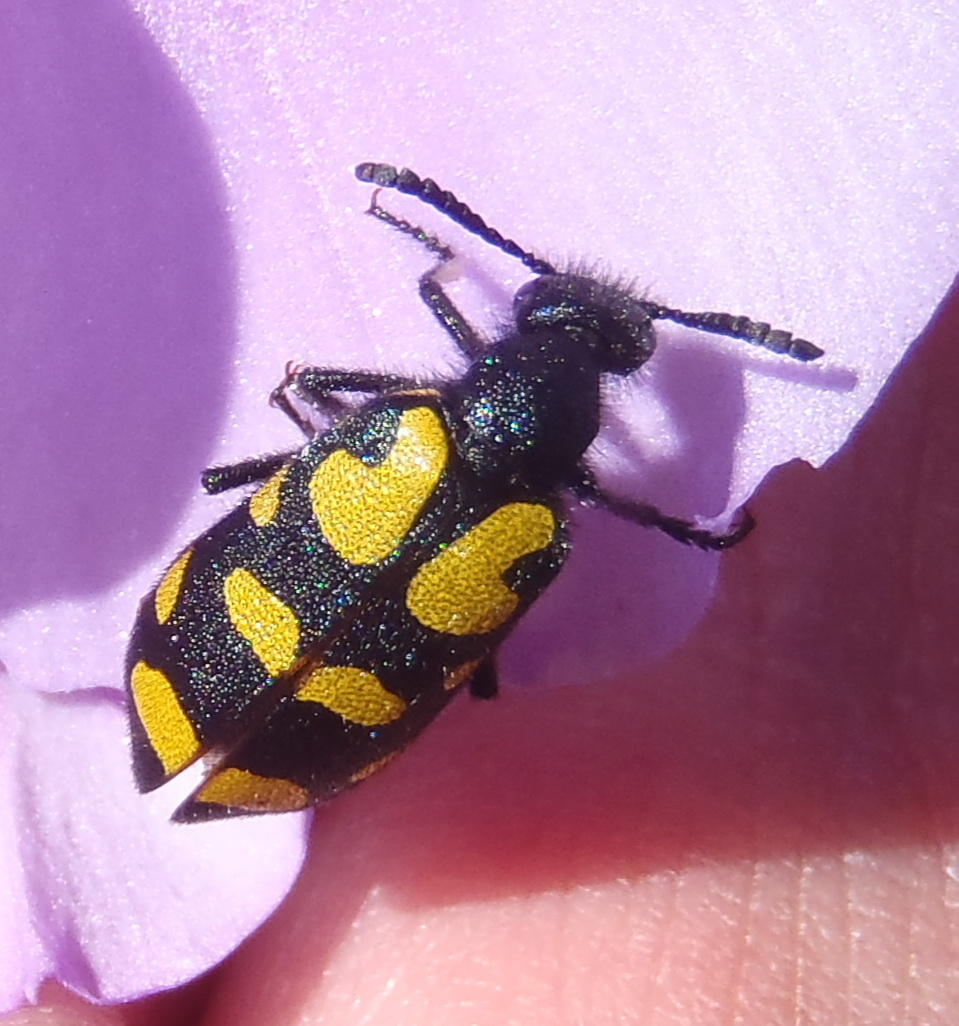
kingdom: Animalia
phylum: Arthropoda
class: Insecta
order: Coleoptera
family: Meloidae
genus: Ceroctis
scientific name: Ceroctis capensis
